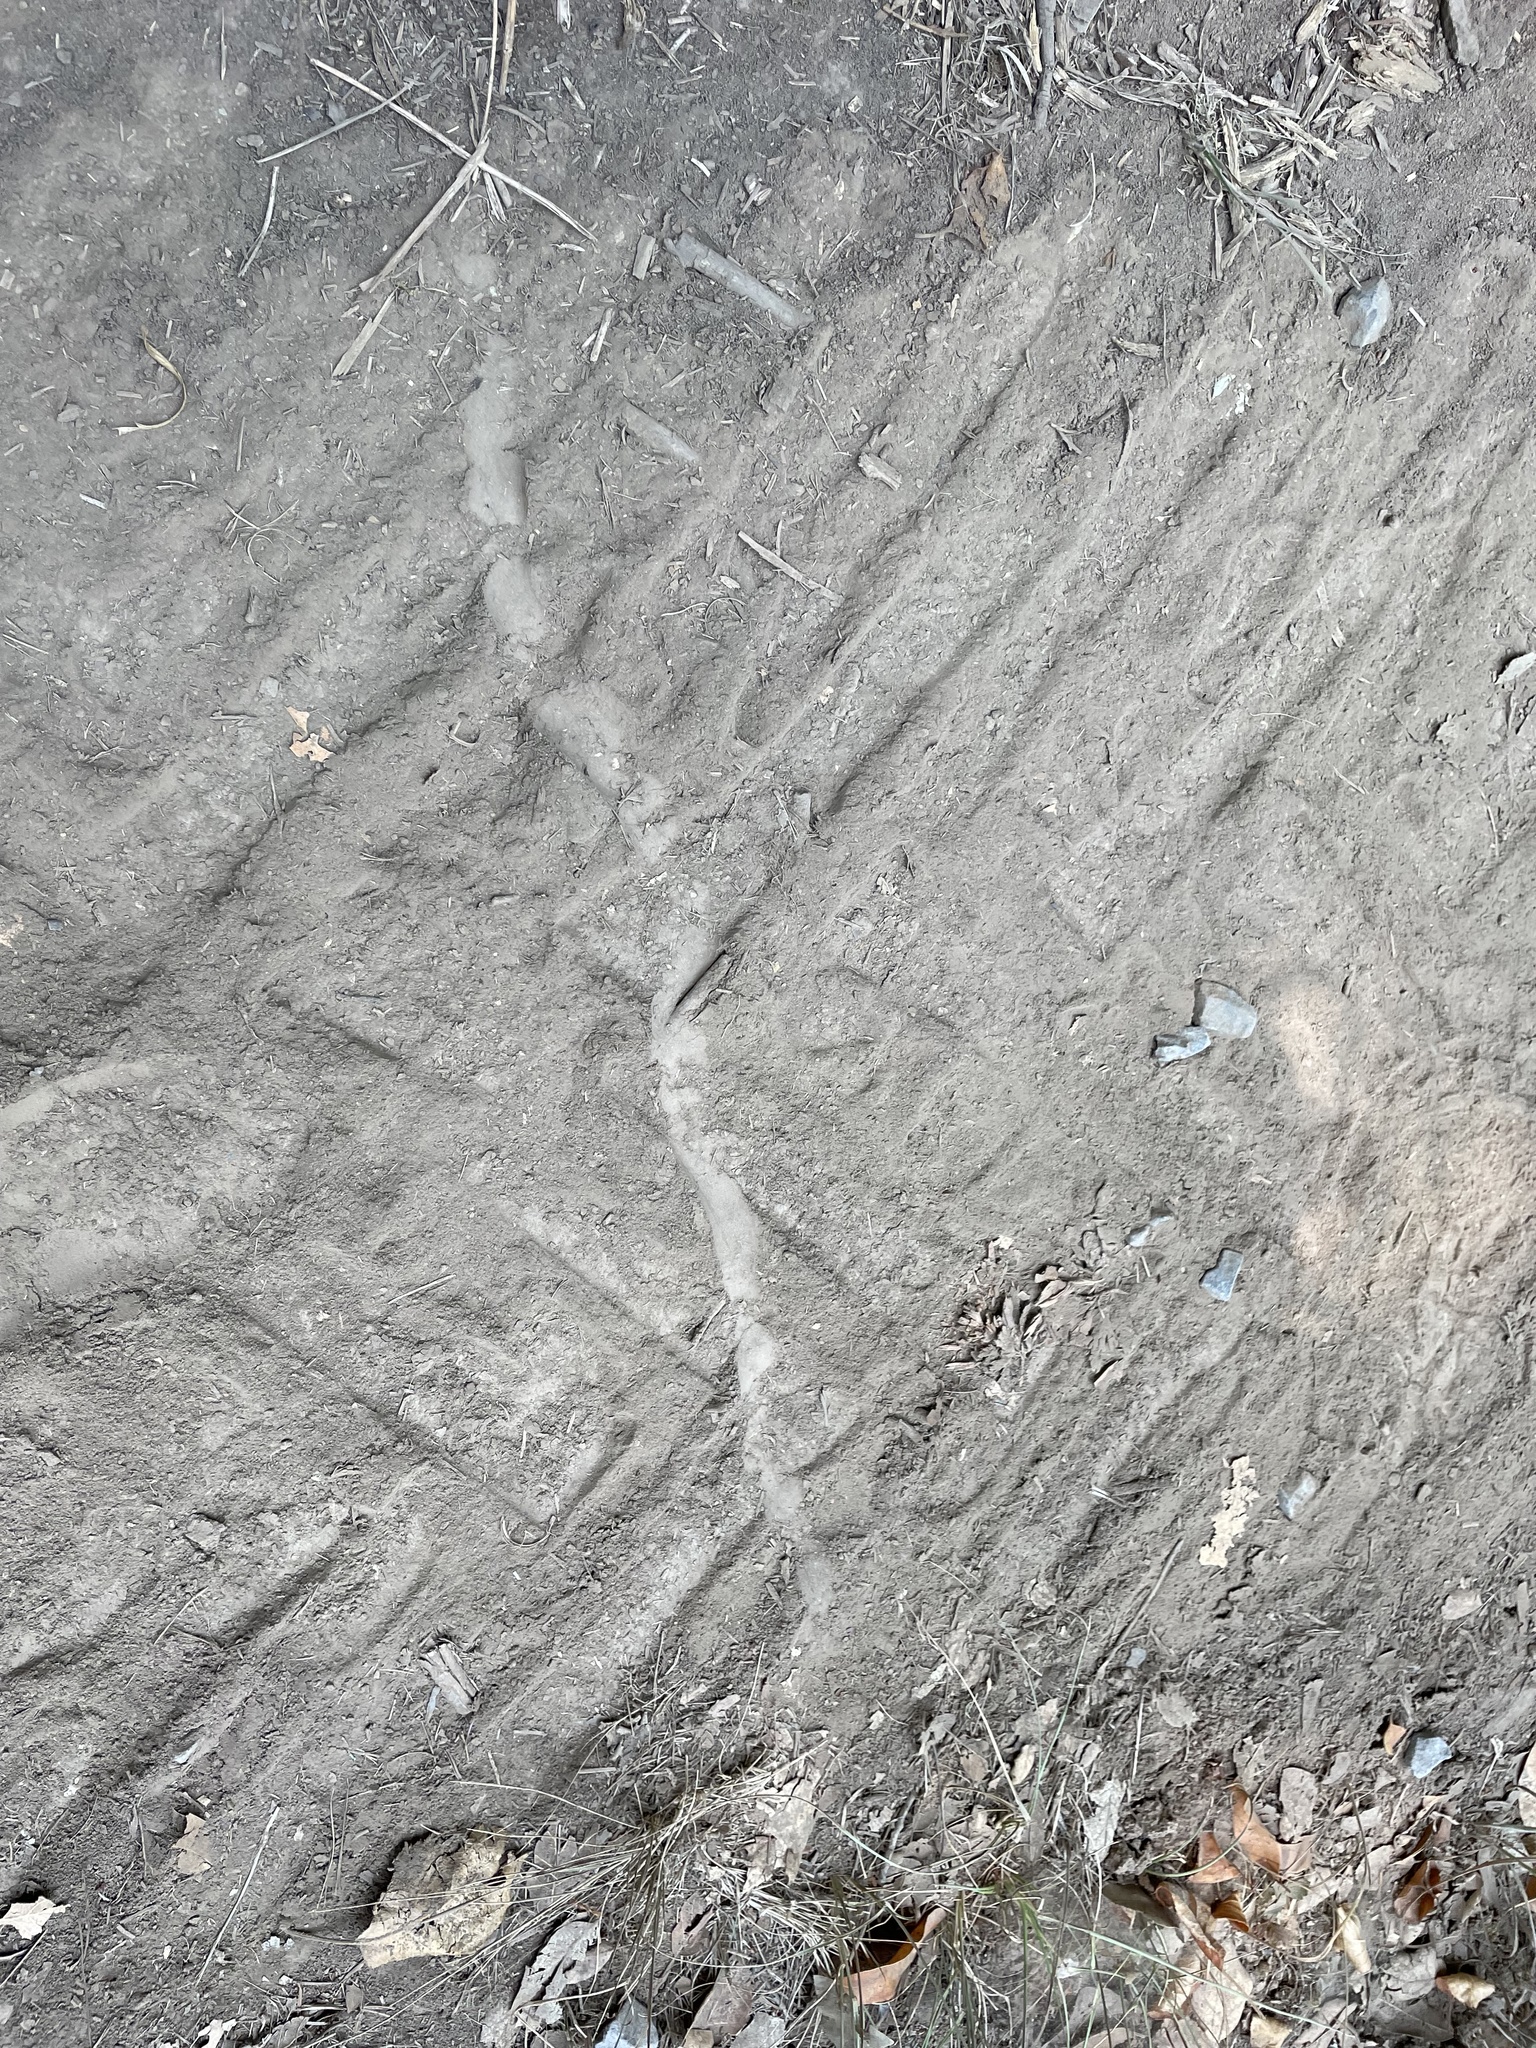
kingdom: Animalia
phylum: Chordata
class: Squamata
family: Colubridae
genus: Pituophis
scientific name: Pituophis catenifer
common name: Gopher snake
